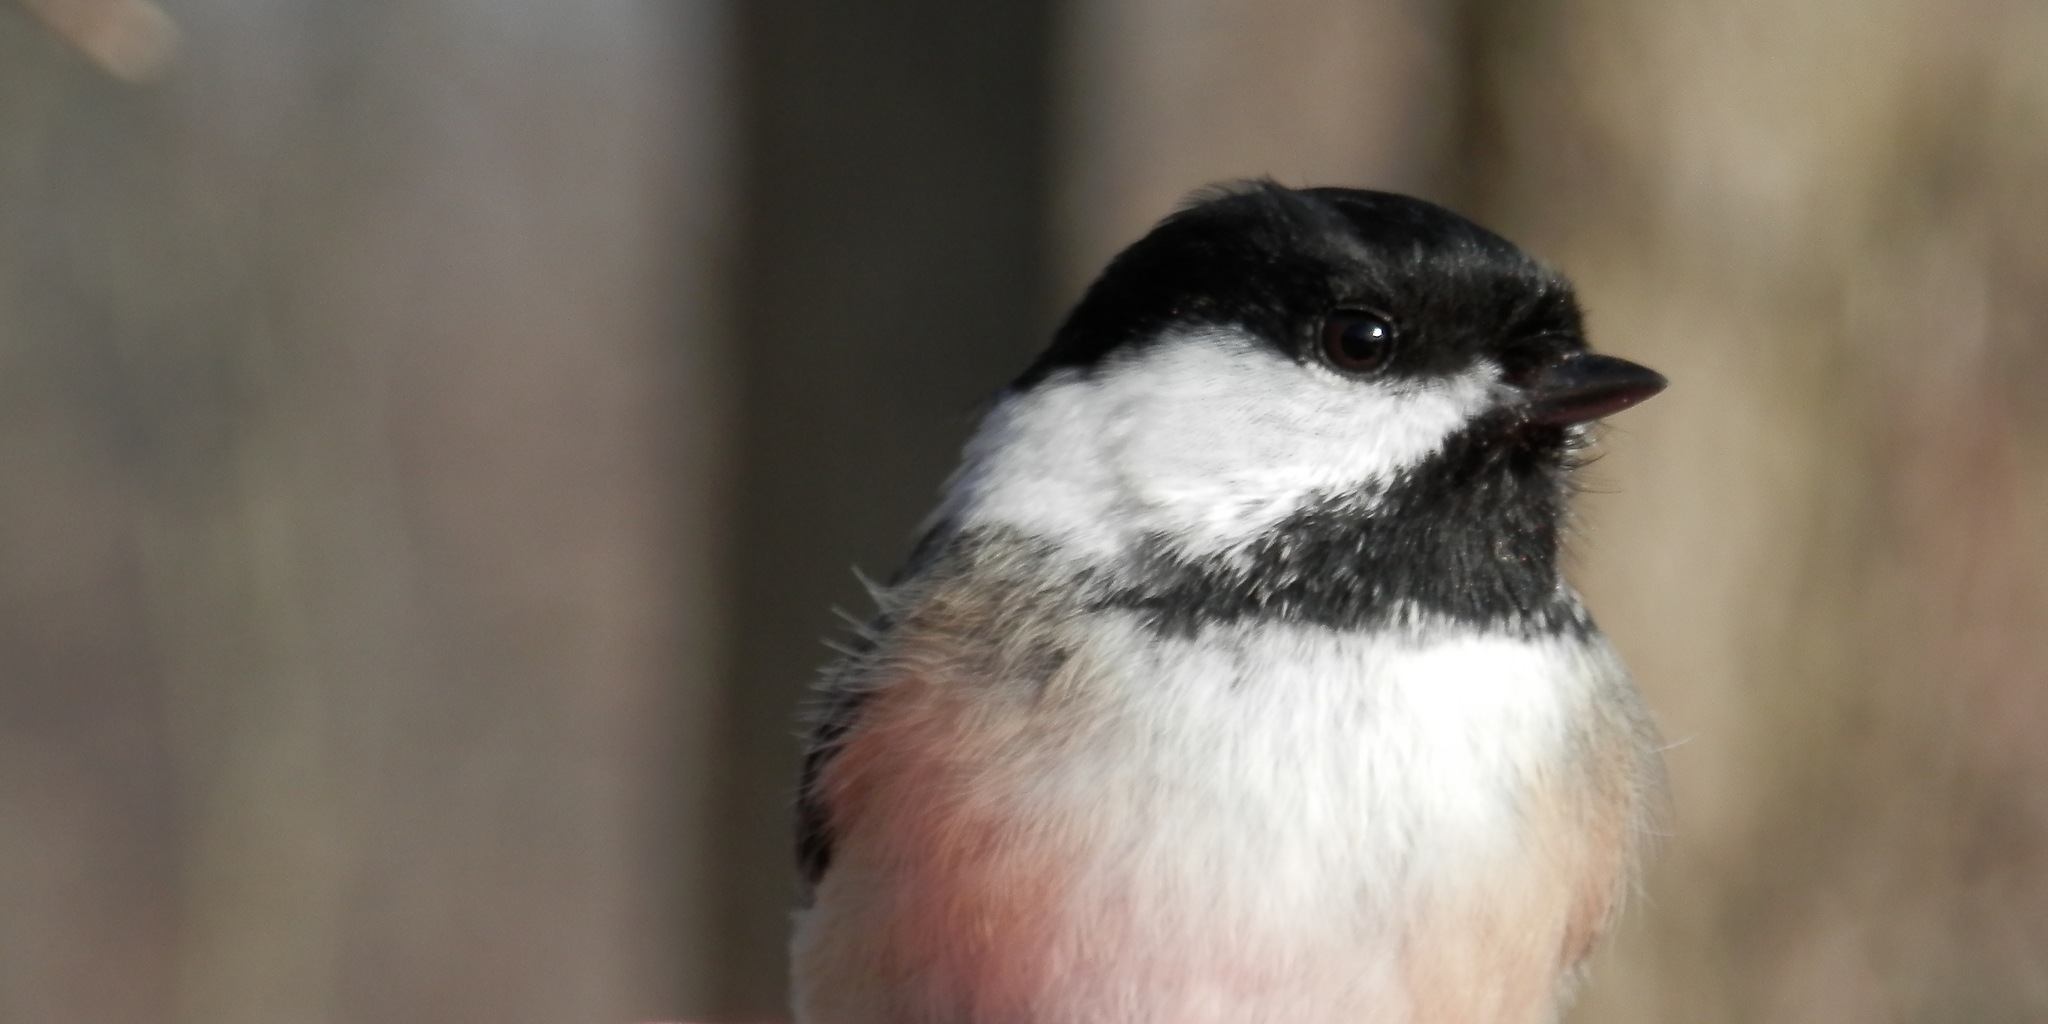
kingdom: Animalia
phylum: Chordata
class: Aves
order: Passeriformes
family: Paridae
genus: Poecile
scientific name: Poecile atricapillus
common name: Black-capped chickadee
